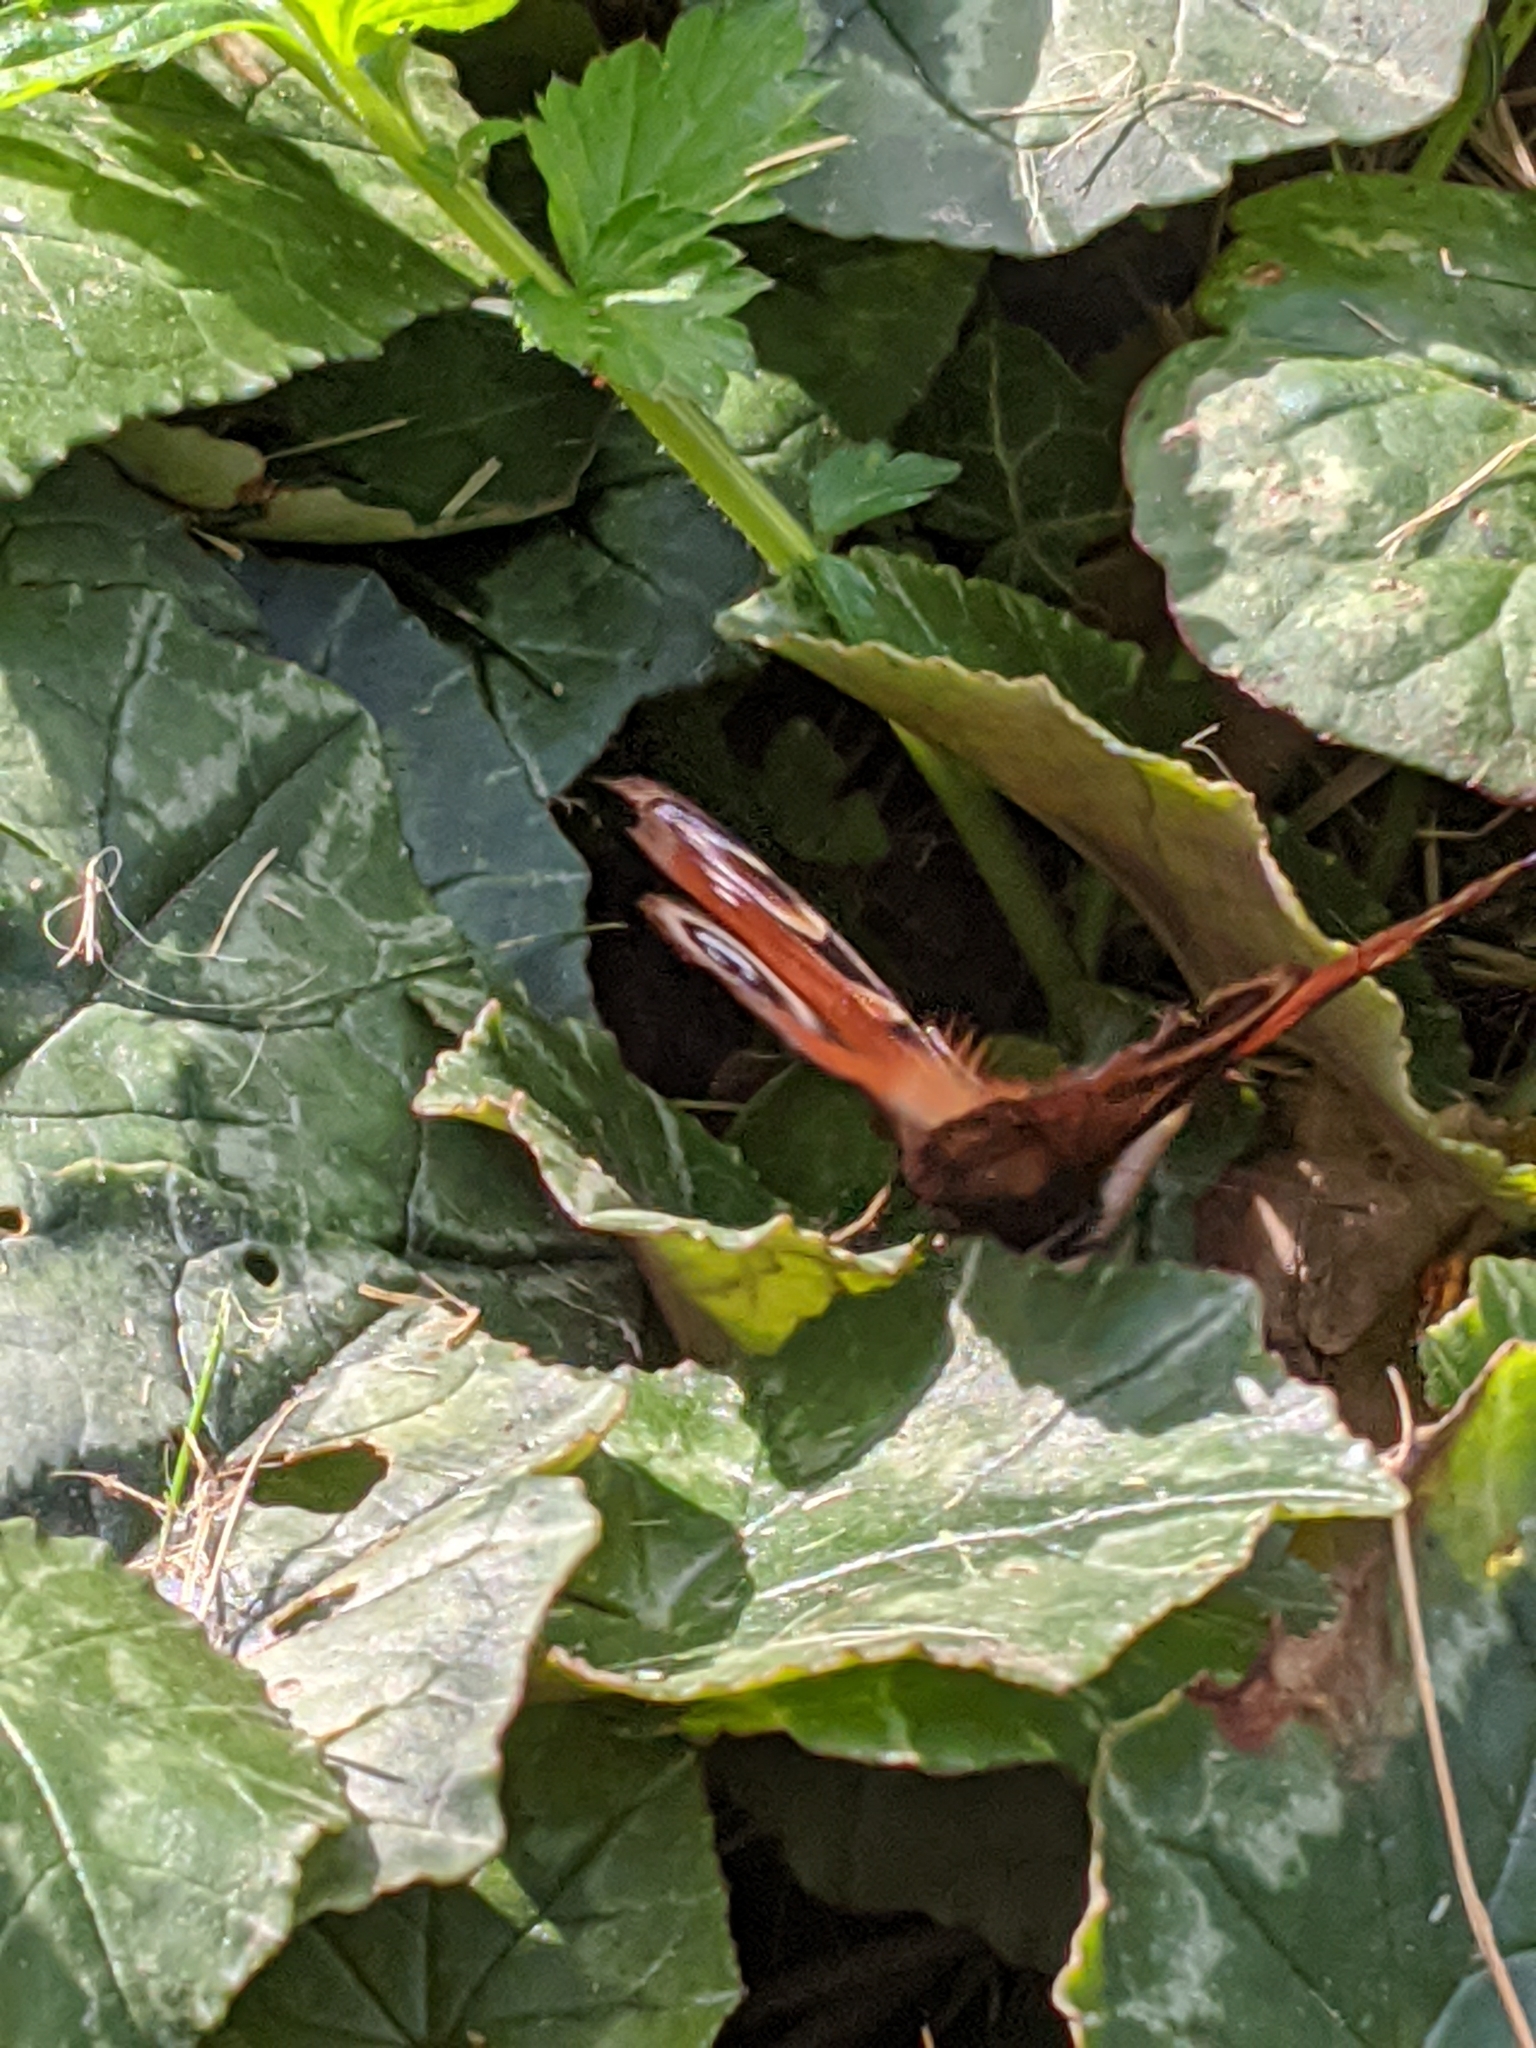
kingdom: Animalia
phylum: Arthropoda
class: Insecta
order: Lepidoptera
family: Nymphalidae
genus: Aglais
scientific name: Aglais io
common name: Peacock
